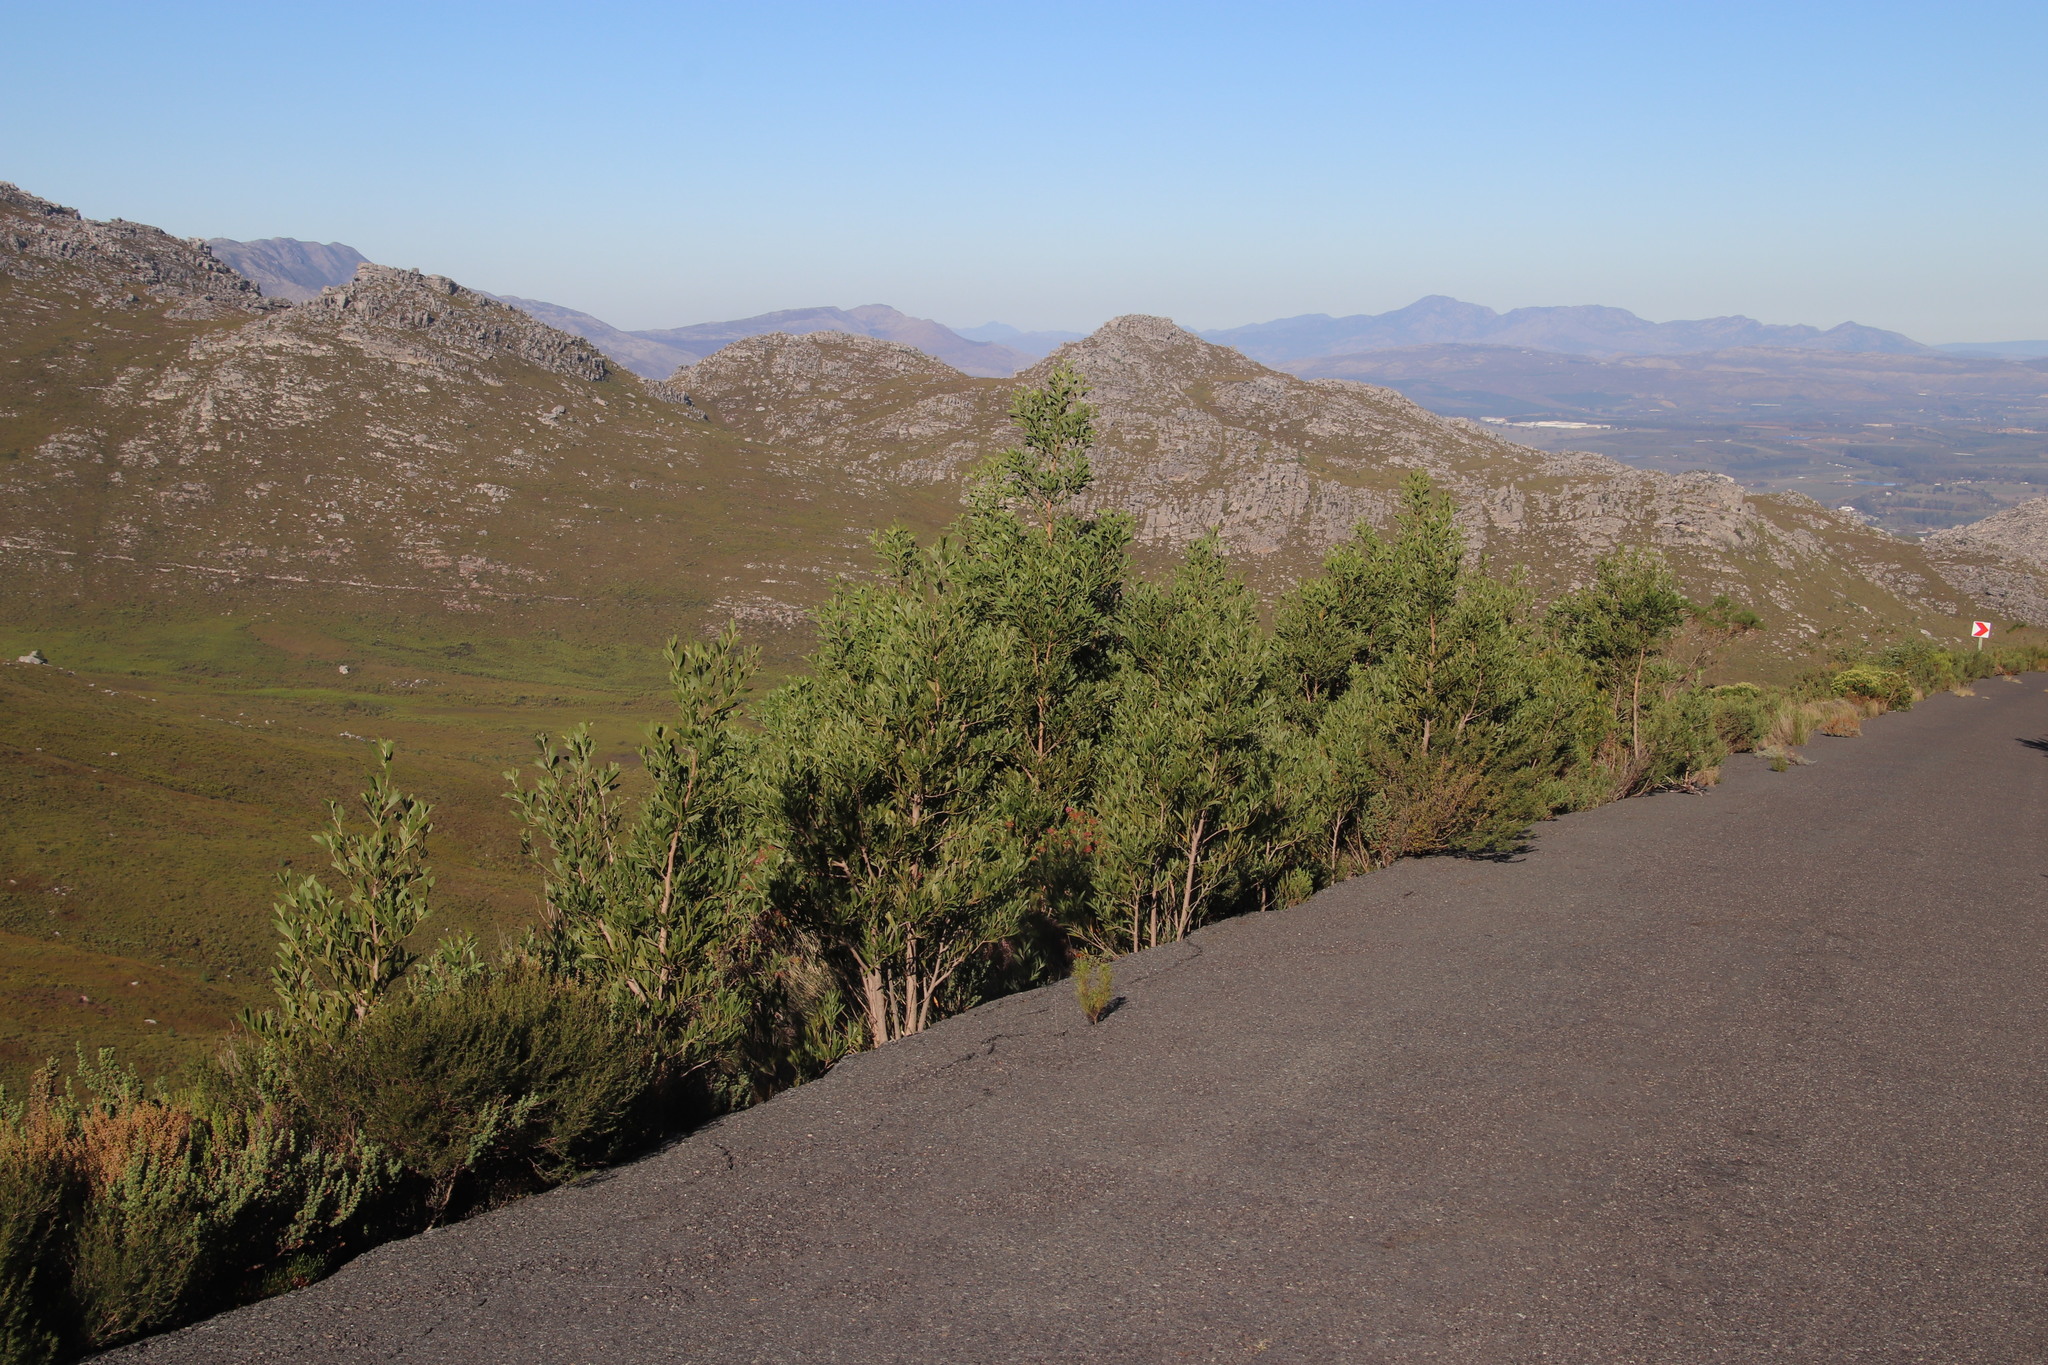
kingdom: Plantae
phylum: Tracheophyta
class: Magnoliopsida
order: Fabales
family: Fabaceae
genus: Acacia
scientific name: Acacia melanoxylon
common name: Blackwood
